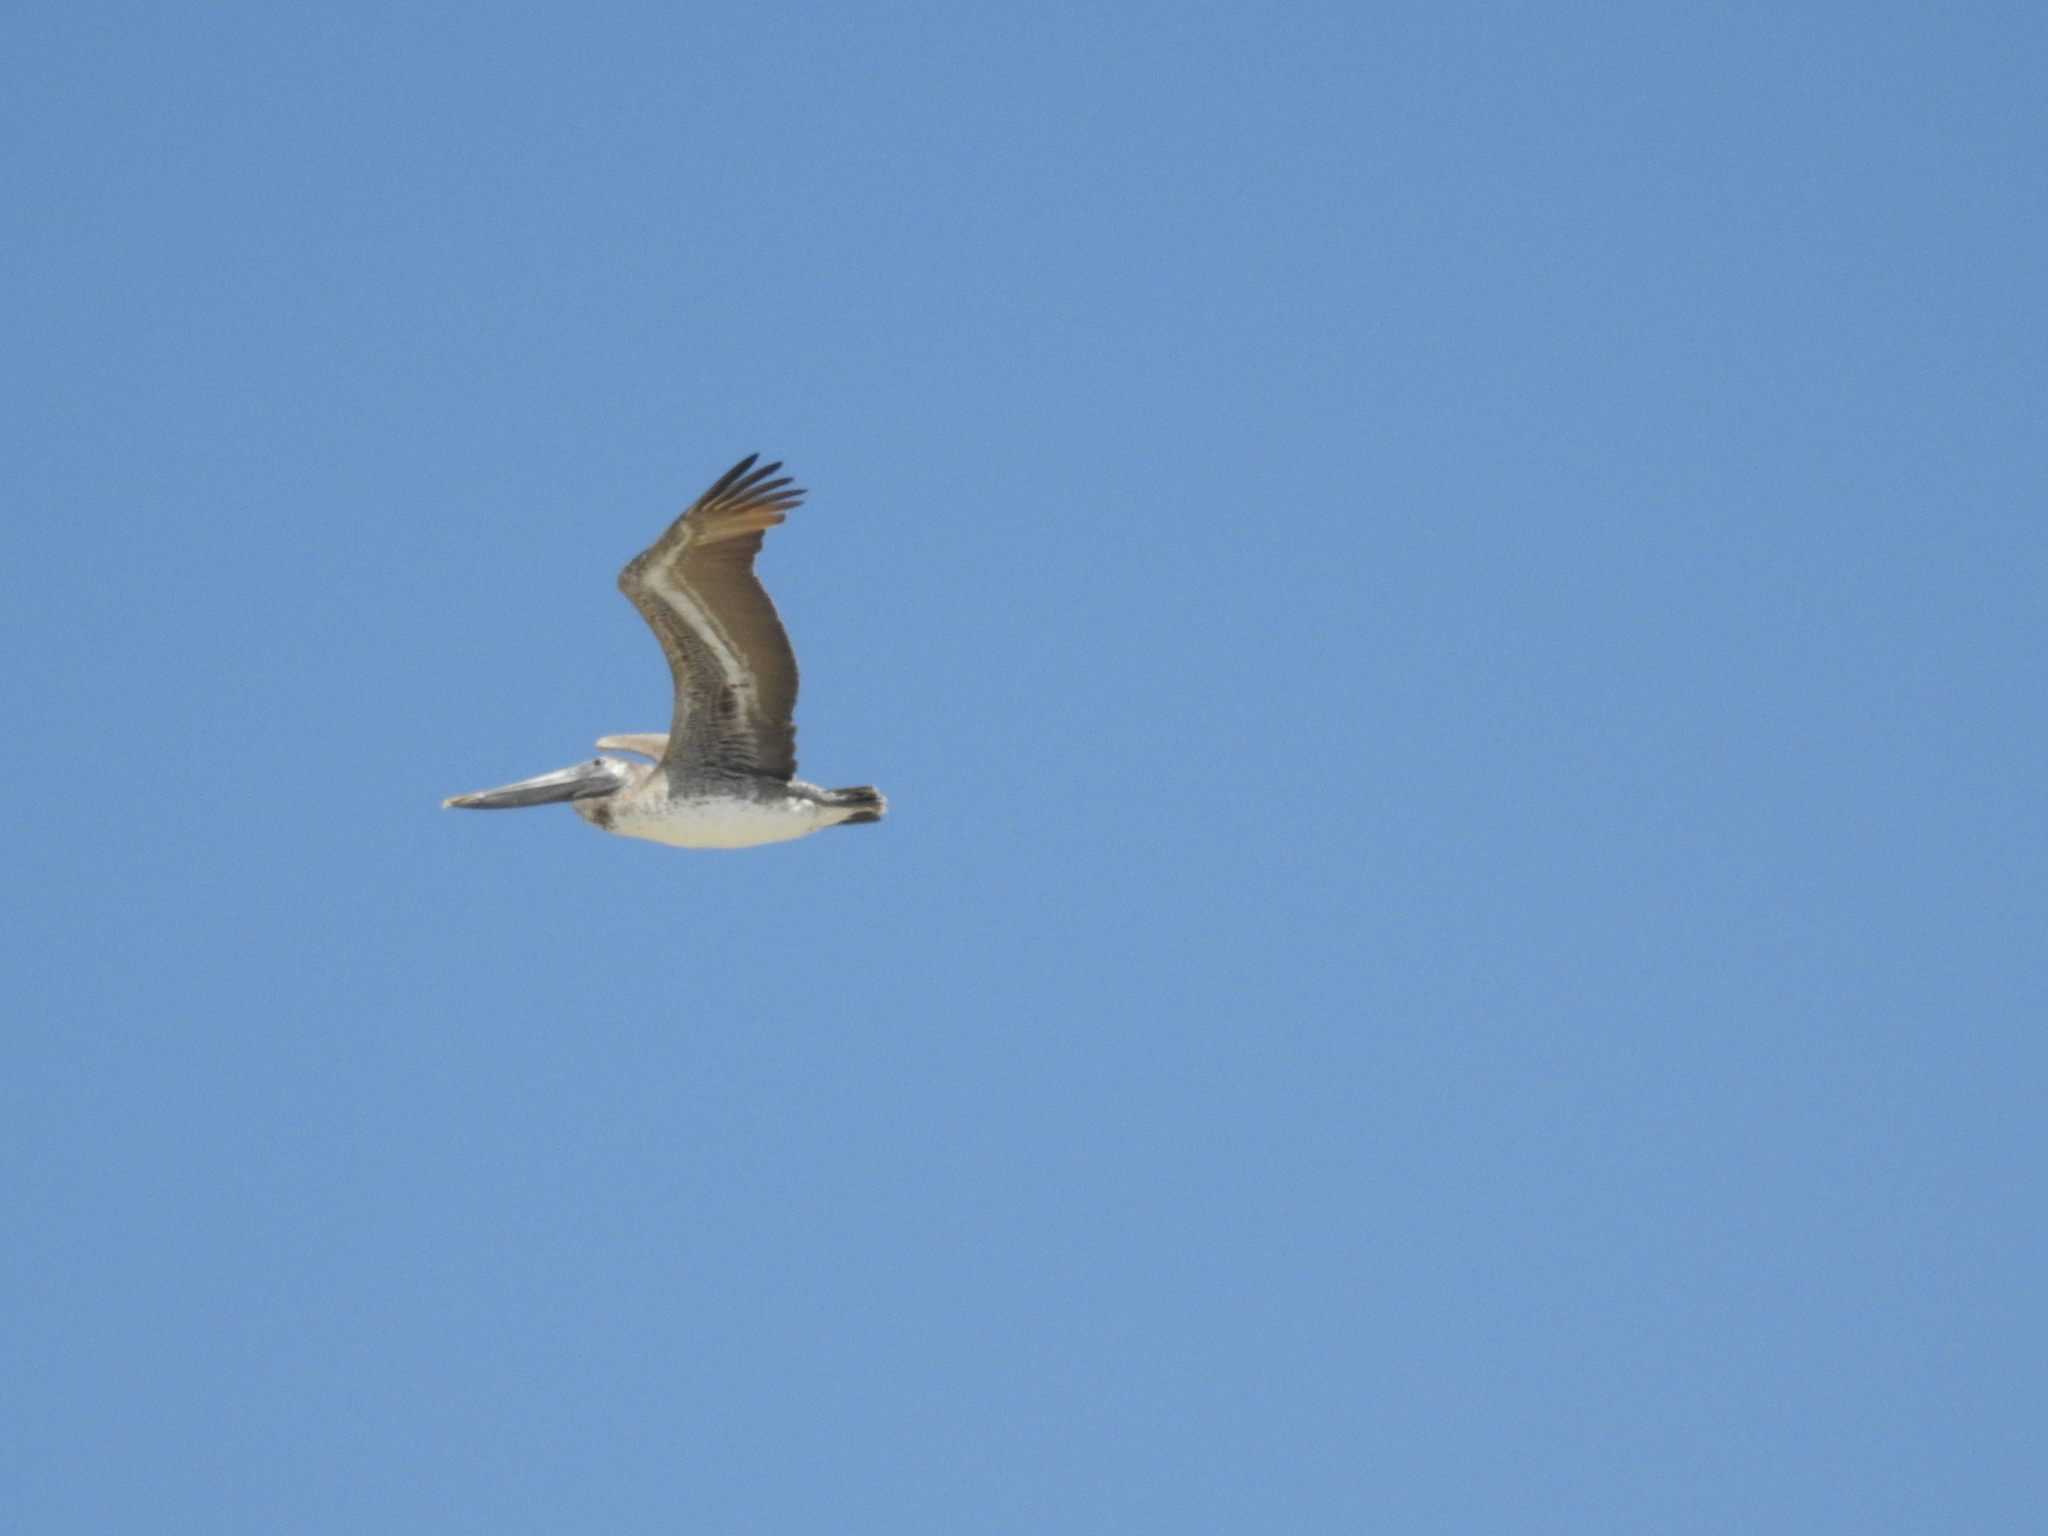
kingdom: Animalia
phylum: Chordata
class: Aves
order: Pelecaniformes
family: Pelecanidae
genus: Pelecanus
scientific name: Pelecanus occidentalis
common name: Brown pelican
